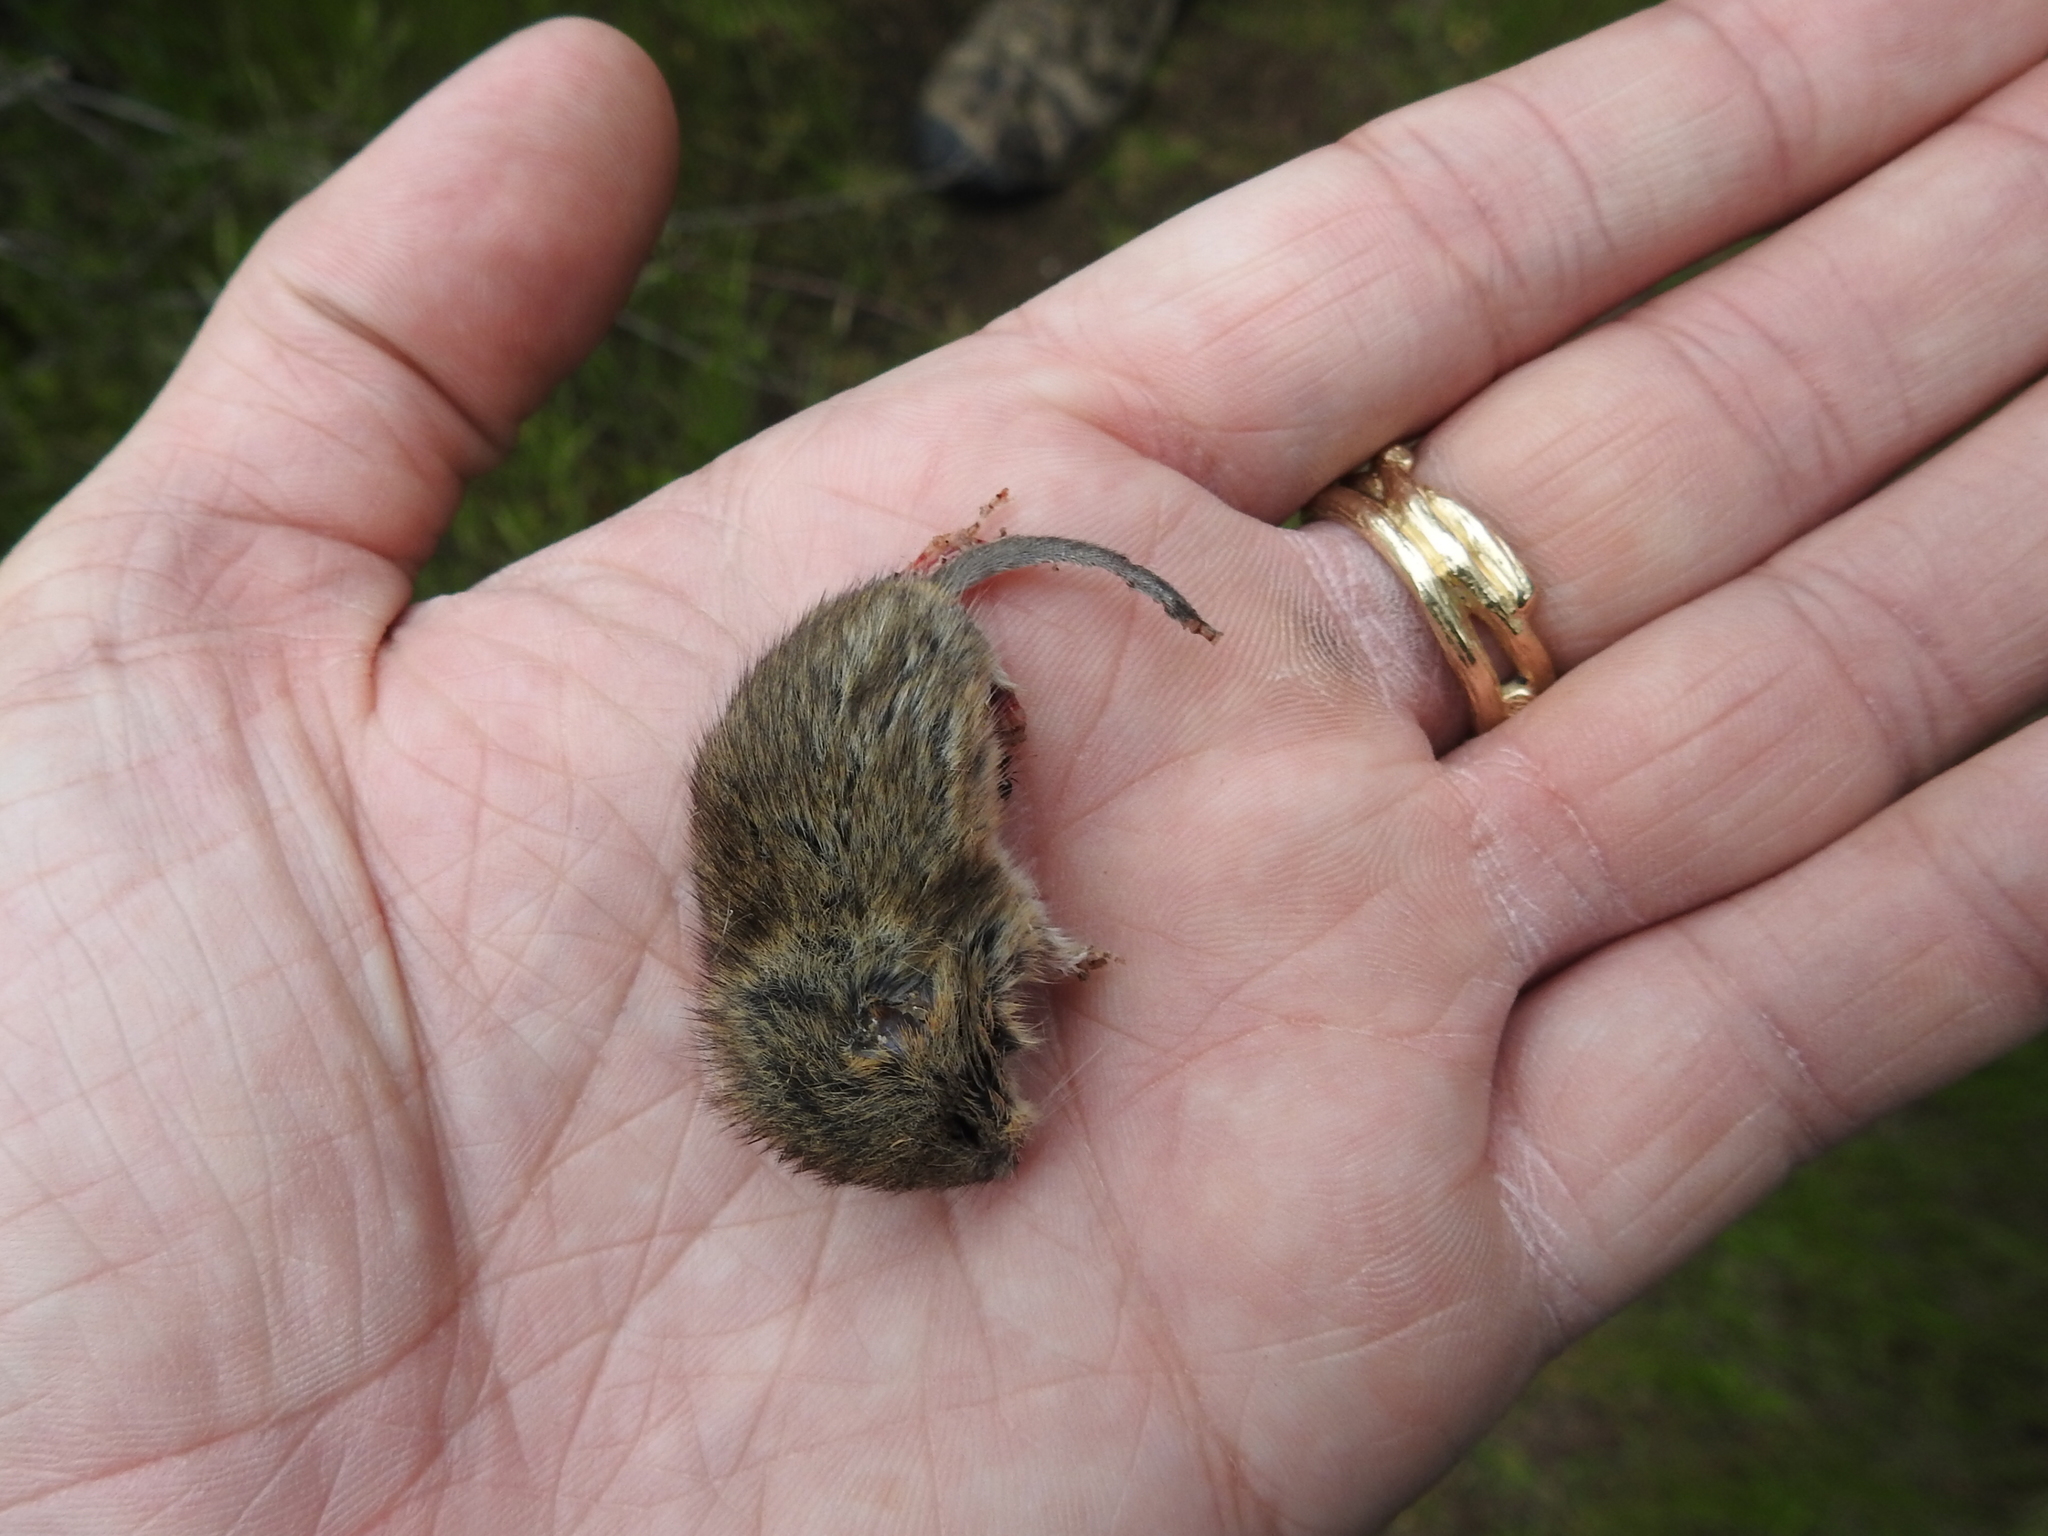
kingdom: Animalia
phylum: Chordata
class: Mammalia
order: Rodentia
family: Cricetidae
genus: Microtus
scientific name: Microtus californicus
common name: California vole
